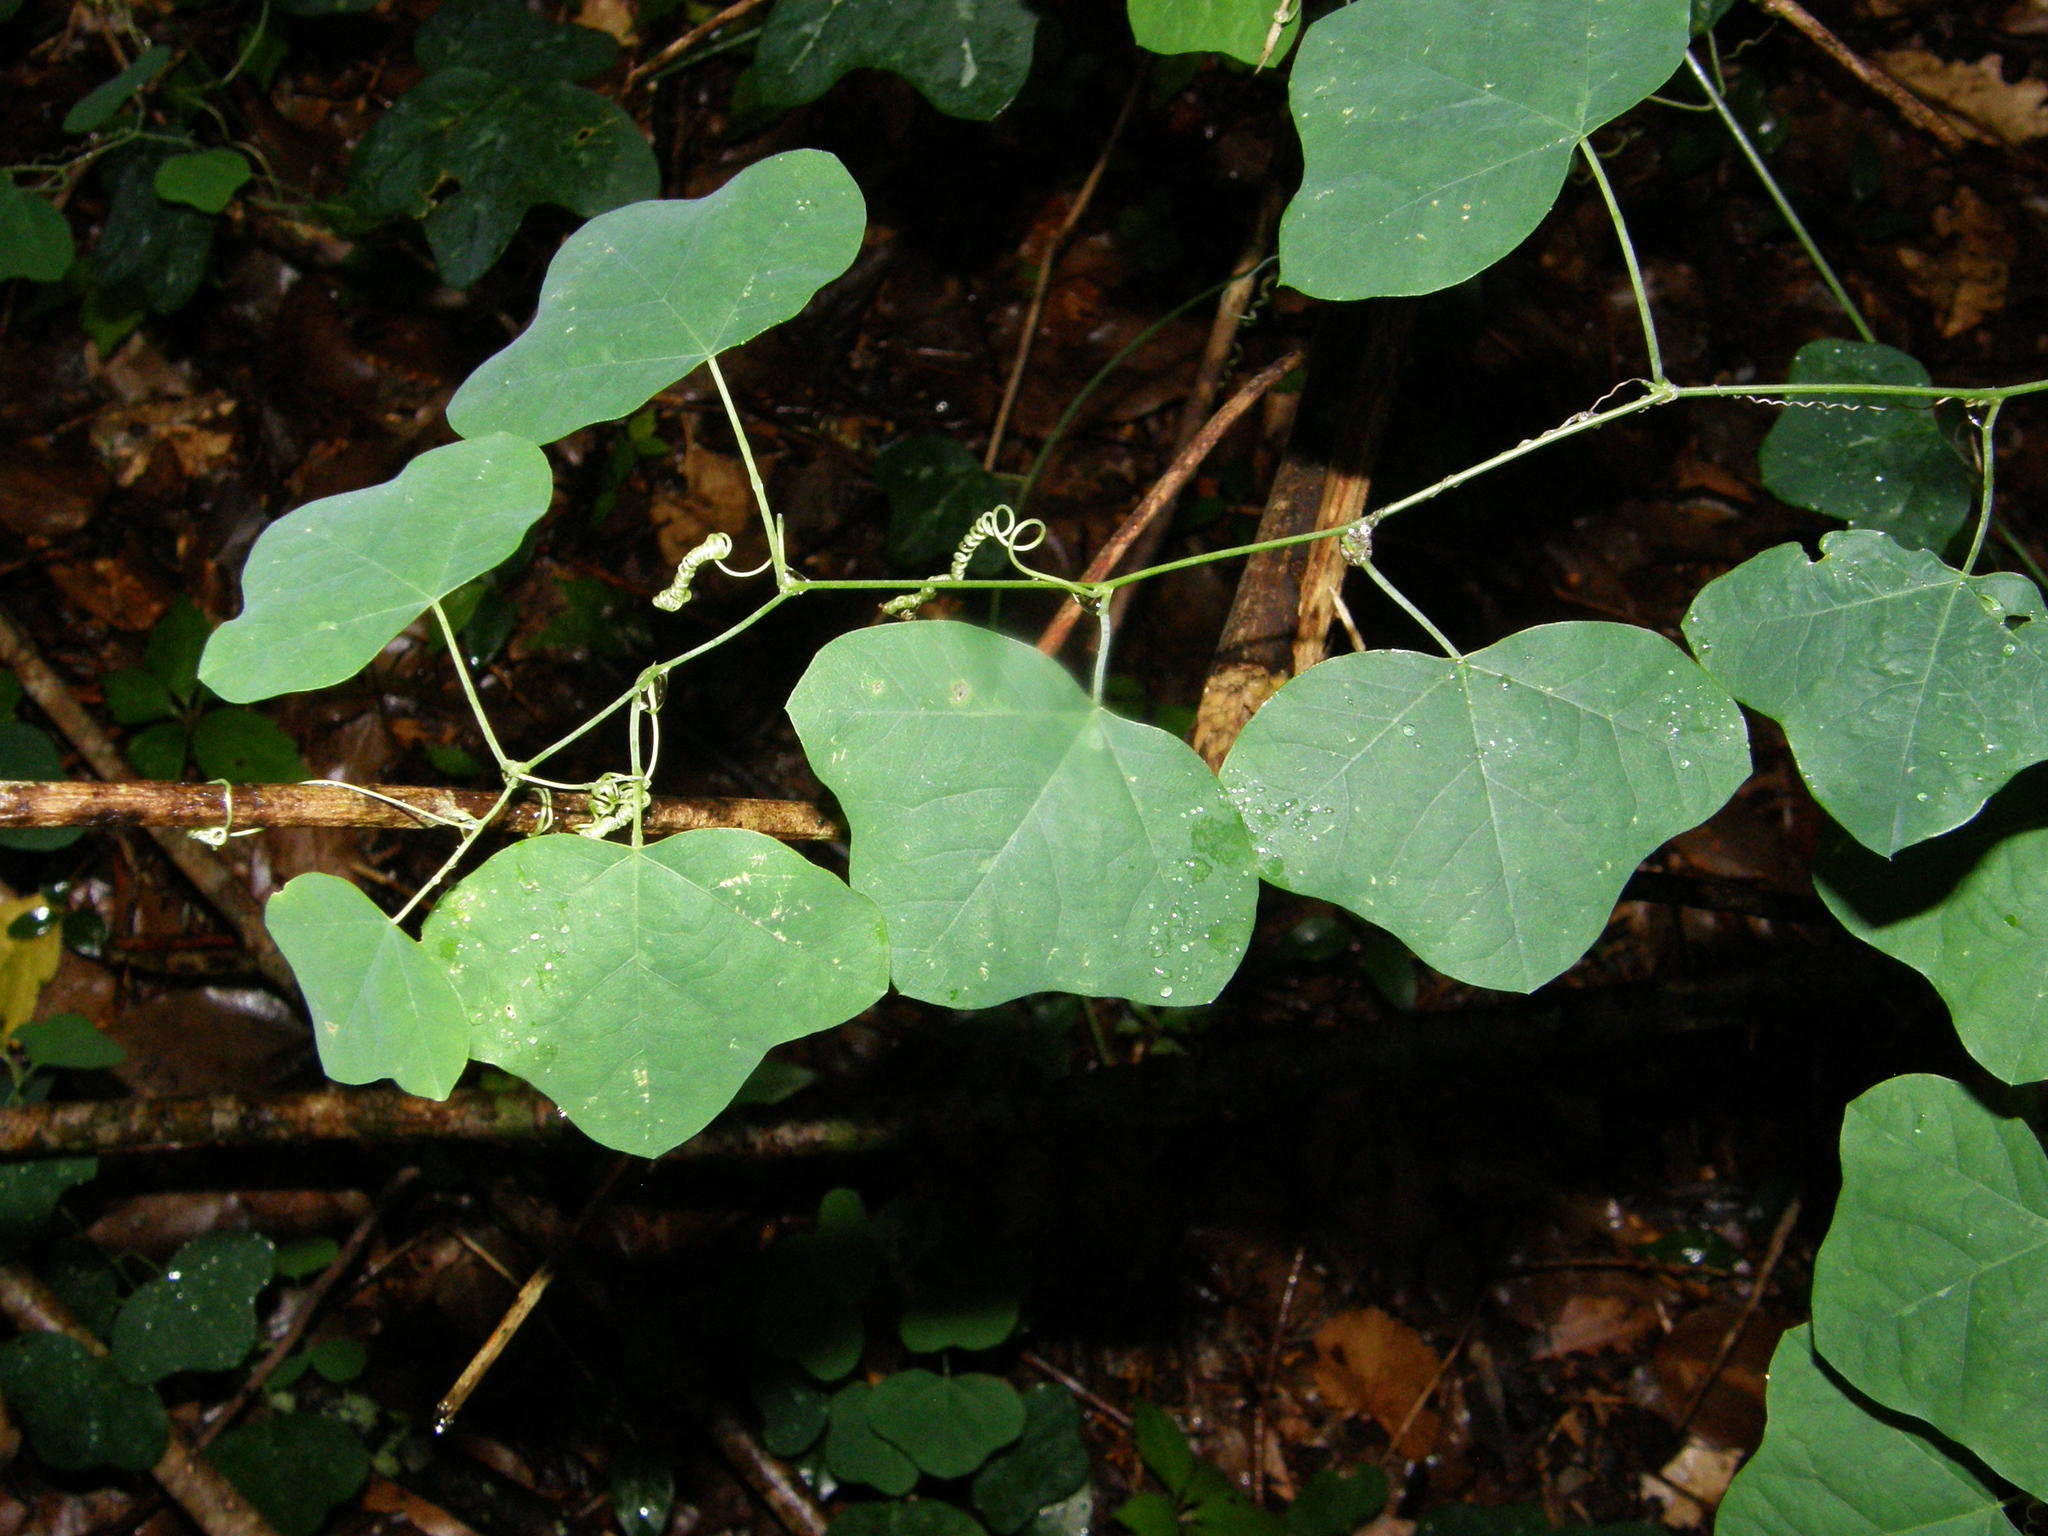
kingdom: Plantae
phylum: Tracheophyta
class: Magnoliopsida
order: Malpighiales
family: Passifloraceae
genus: Passiflora
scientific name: Passiflora lutea
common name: Yellow passionflower
